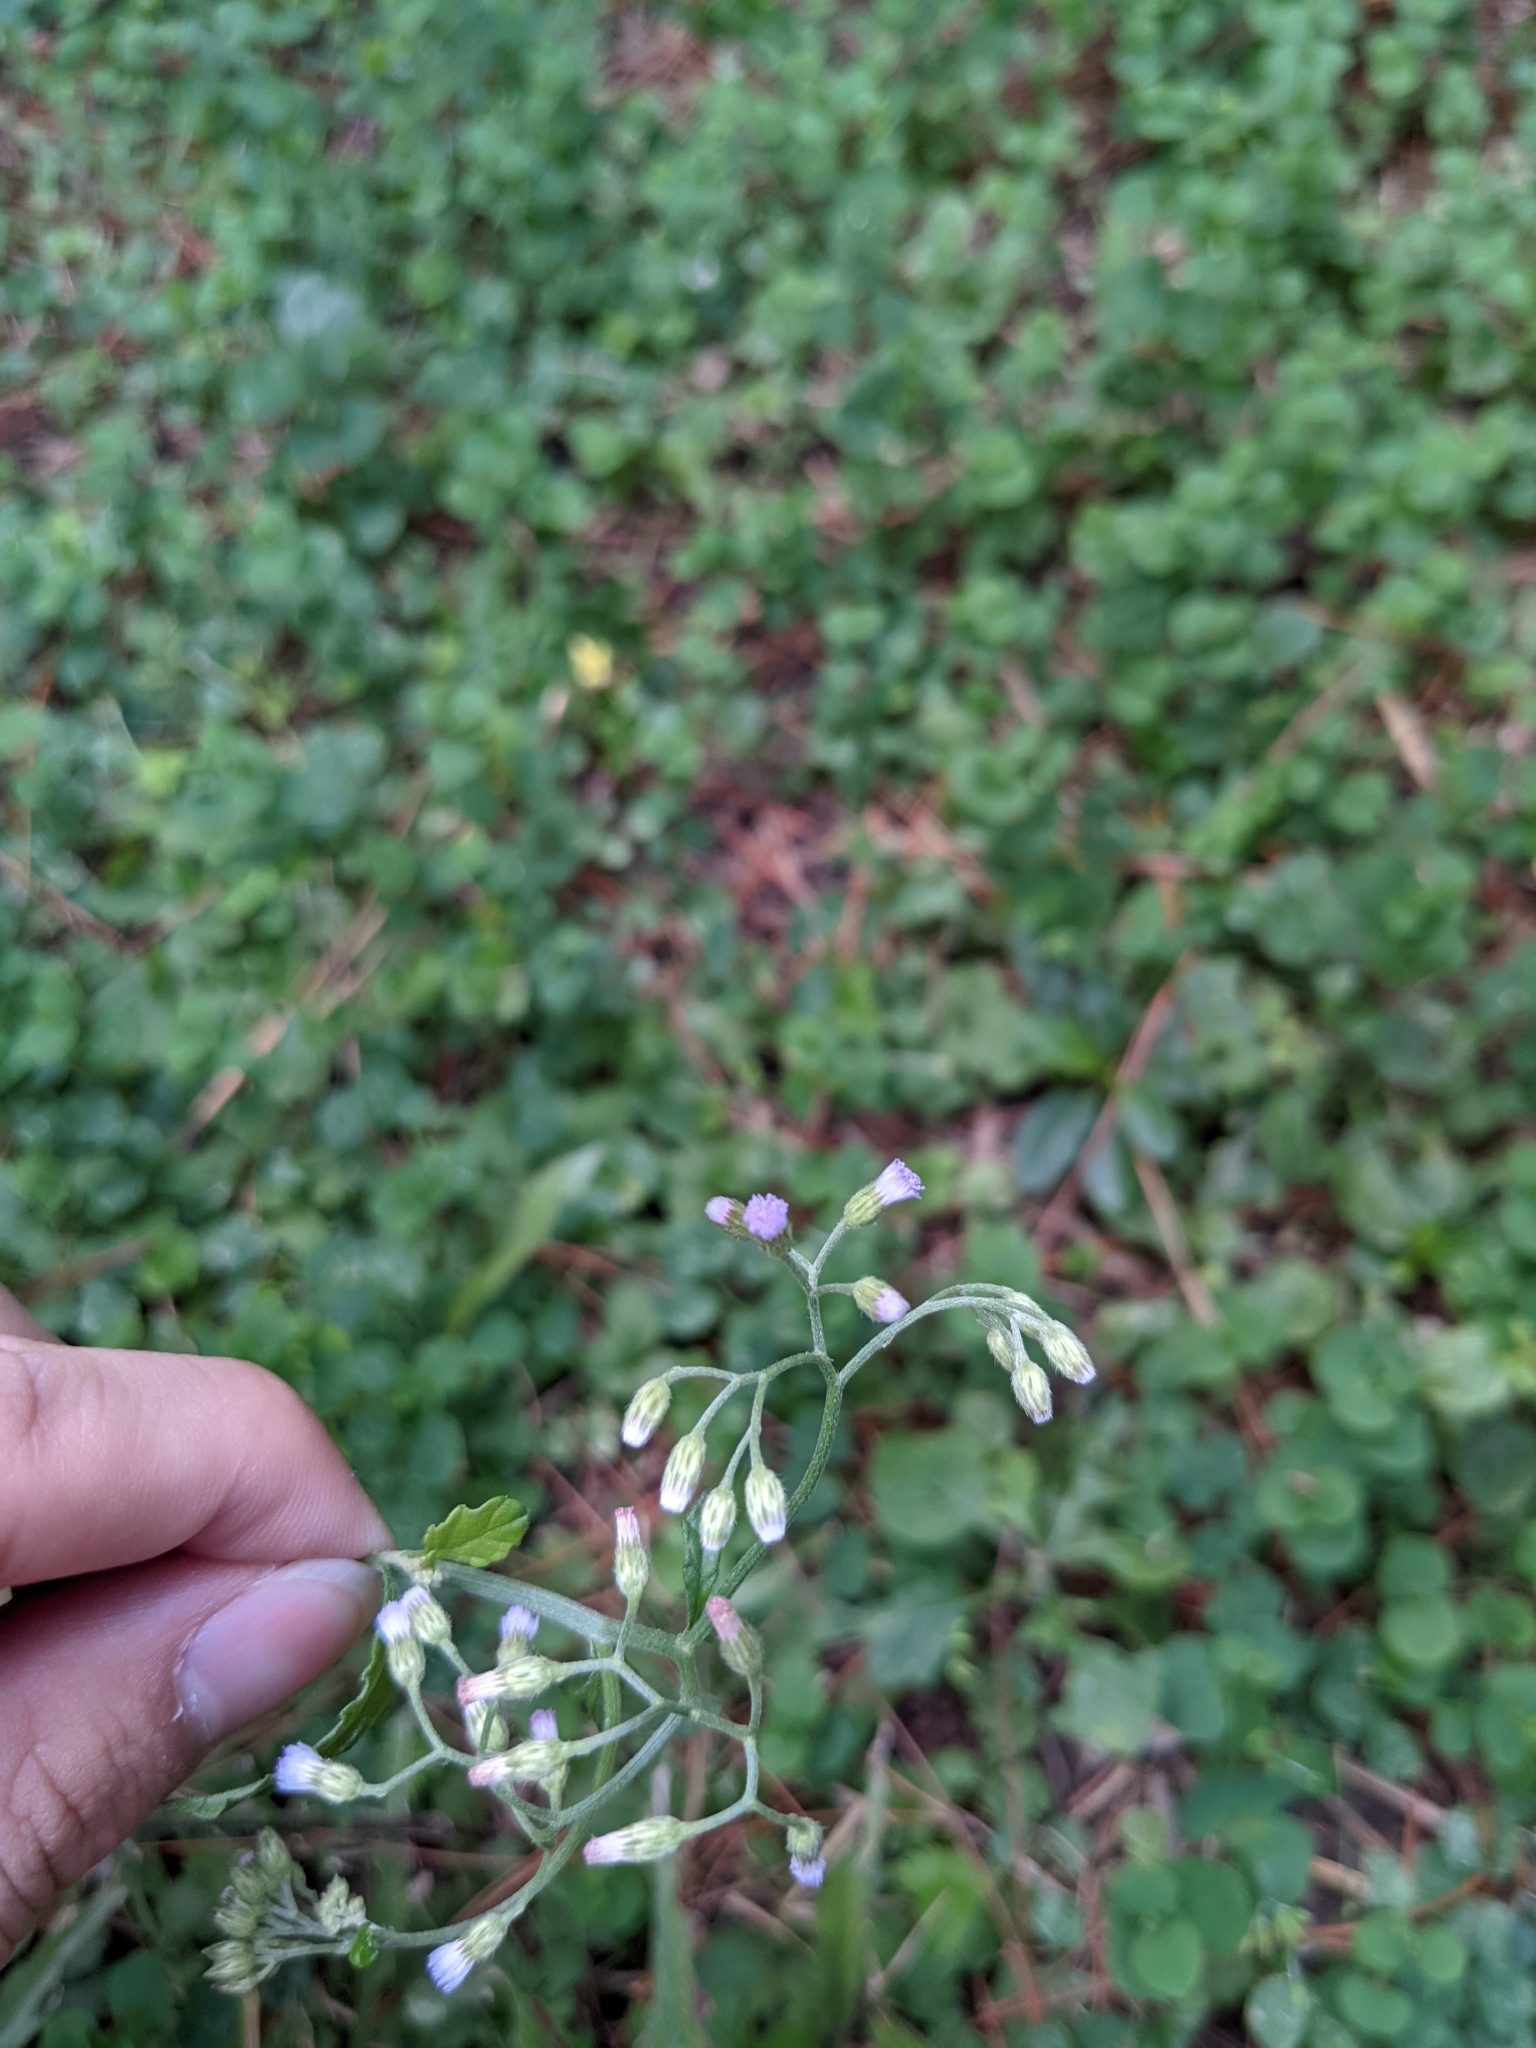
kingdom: Plantae
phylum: Tracheophyta
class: Magnoliopsida
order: Asterales
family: Asteraceae
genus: Cyanthillium
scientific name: Cyanthillium cinereum
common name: Little ironweed
